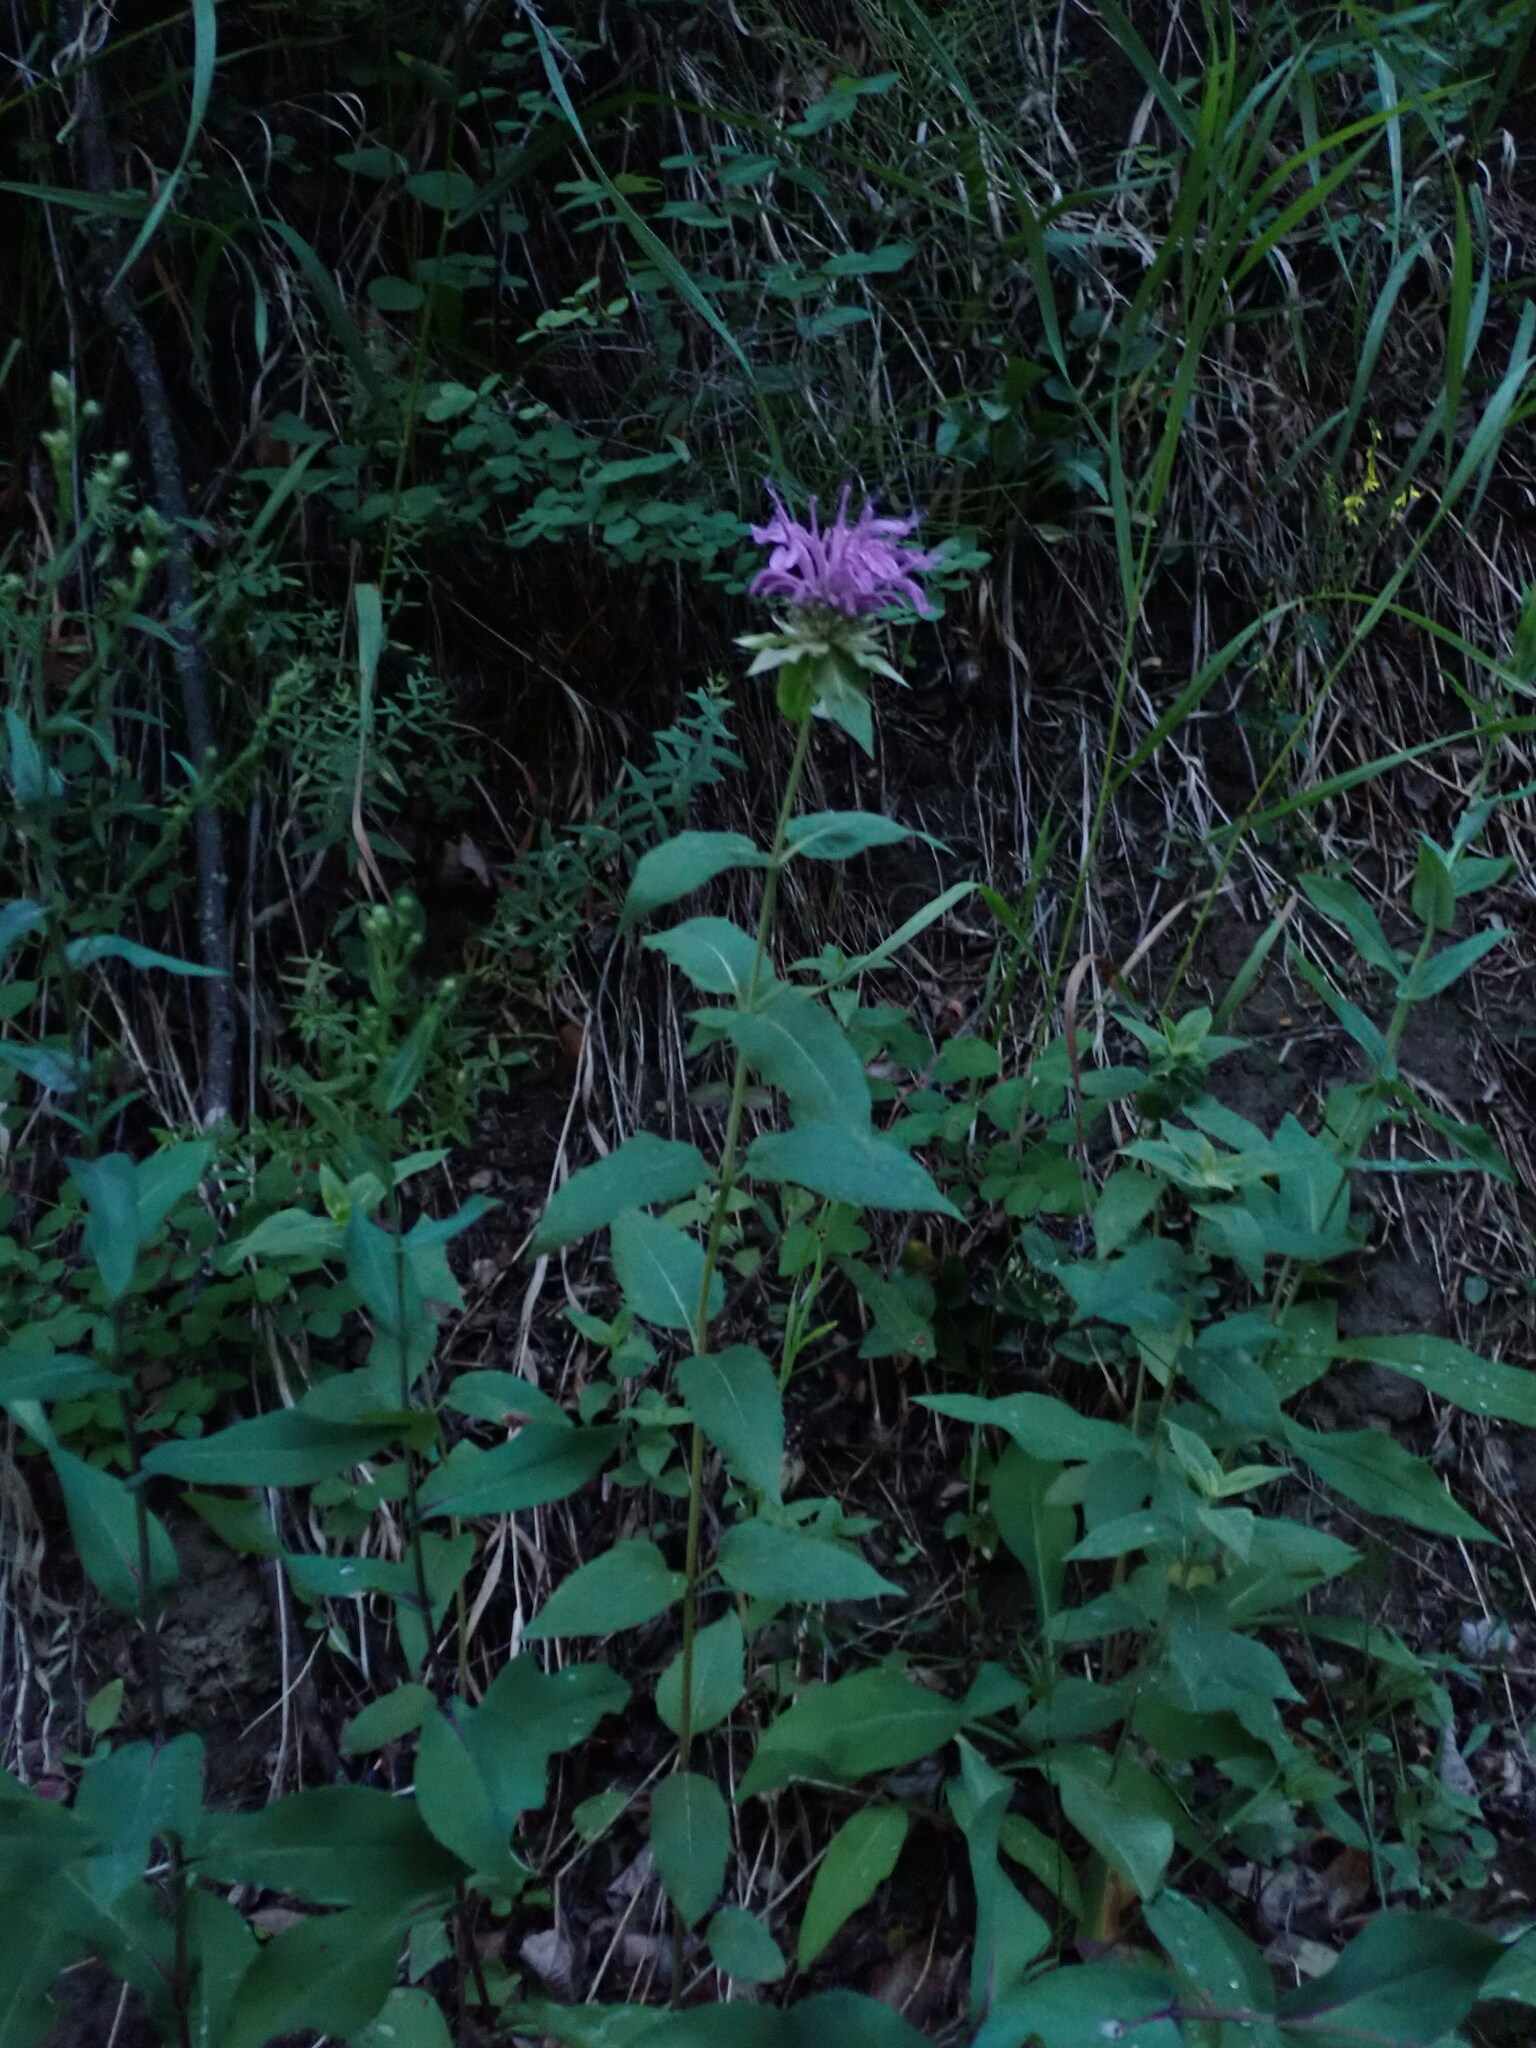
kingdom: Plantae
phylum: Tracheophyta
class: Magnoliopsida
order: Lamiales
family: Lamiaceae
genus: Monarda
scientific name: Monarda fistulosa
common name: Purple beebalm
